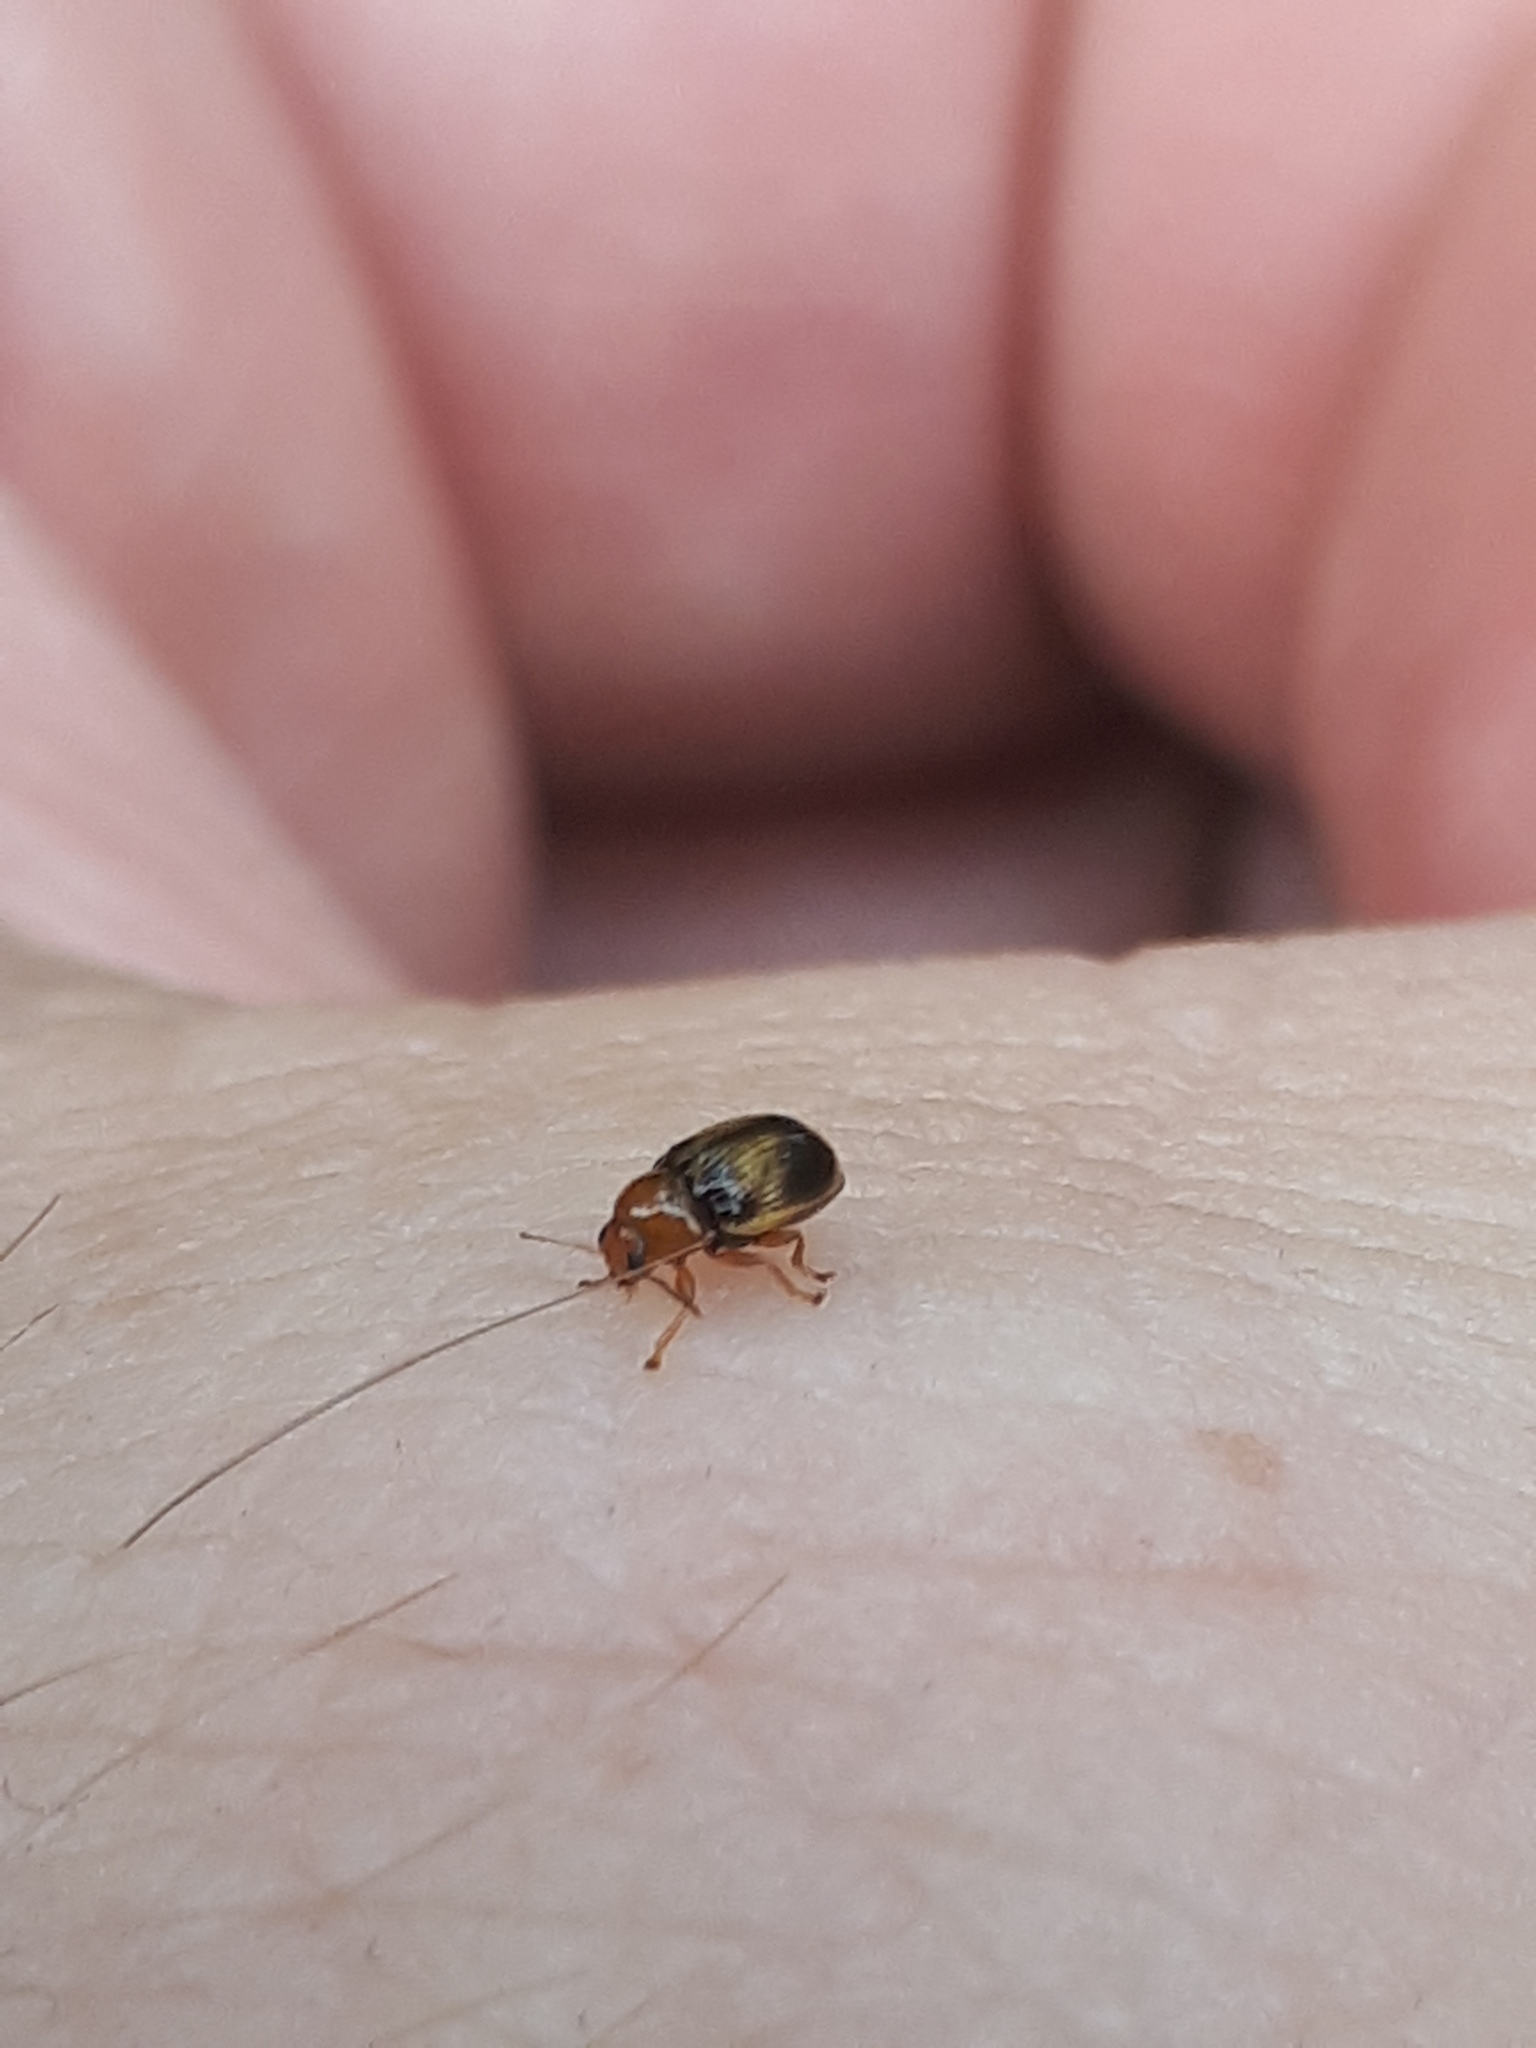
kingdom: Animalia
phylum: Arthropoda
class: Insecta
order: Coleoptera
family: Chrysomelidae
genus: Cryptocephalus
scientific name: Cryptocephalus pusillus
